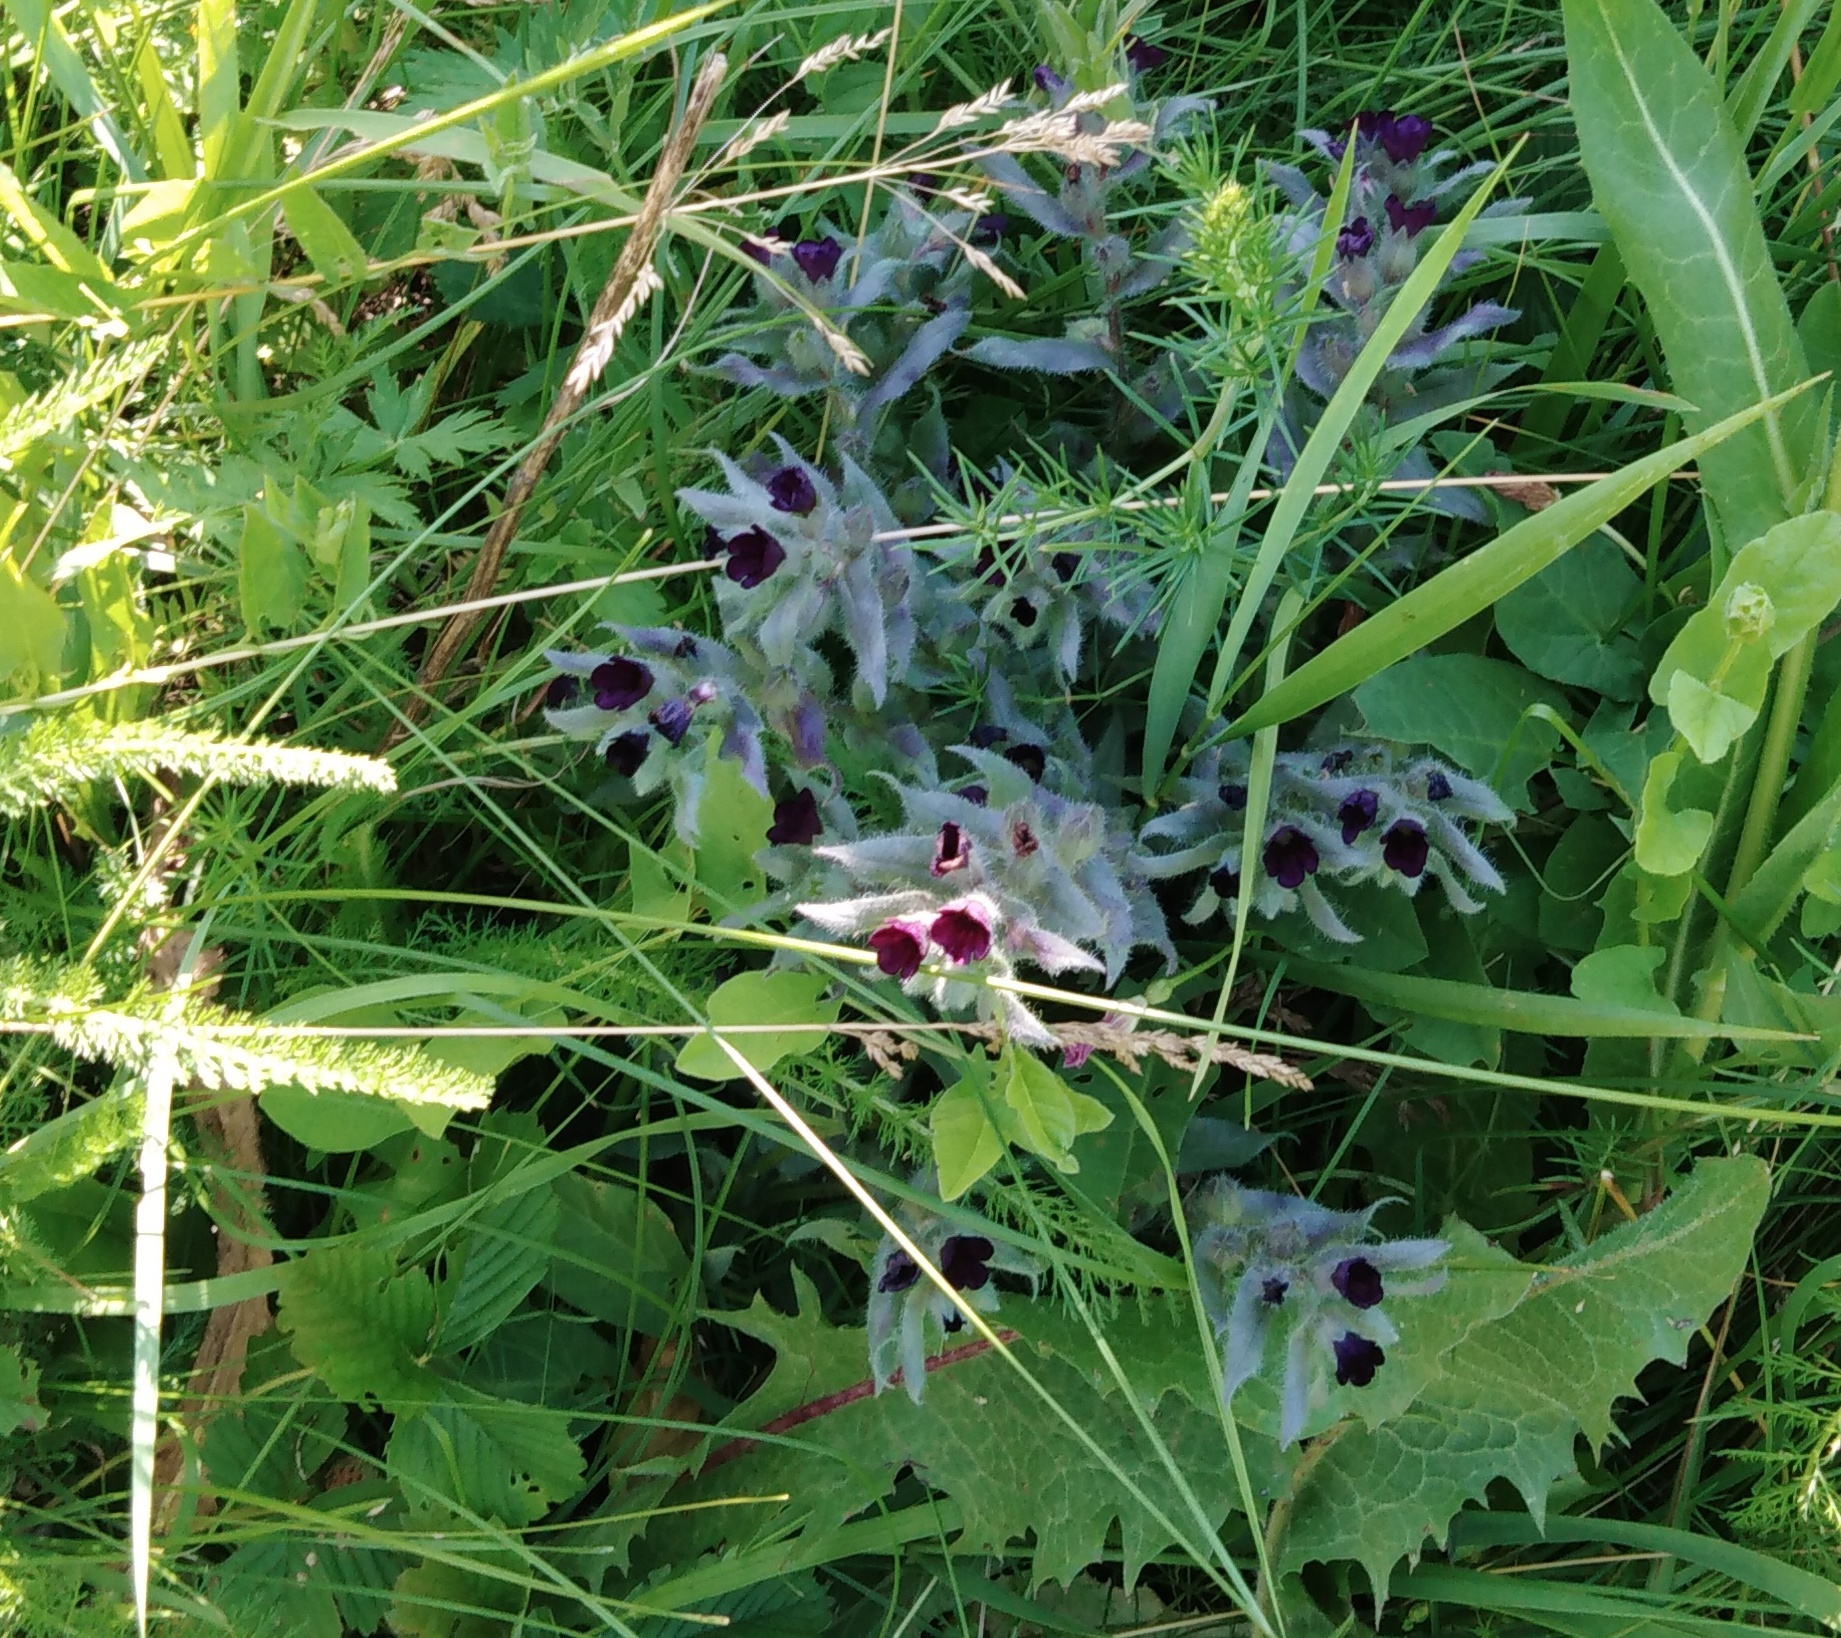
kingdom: Plantae
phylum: Tracheophyta
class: Magnoliopsida
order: Boraginales
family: Boraginaceae
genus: Nonea
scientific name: Nonea pulla
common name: Brown nonea
